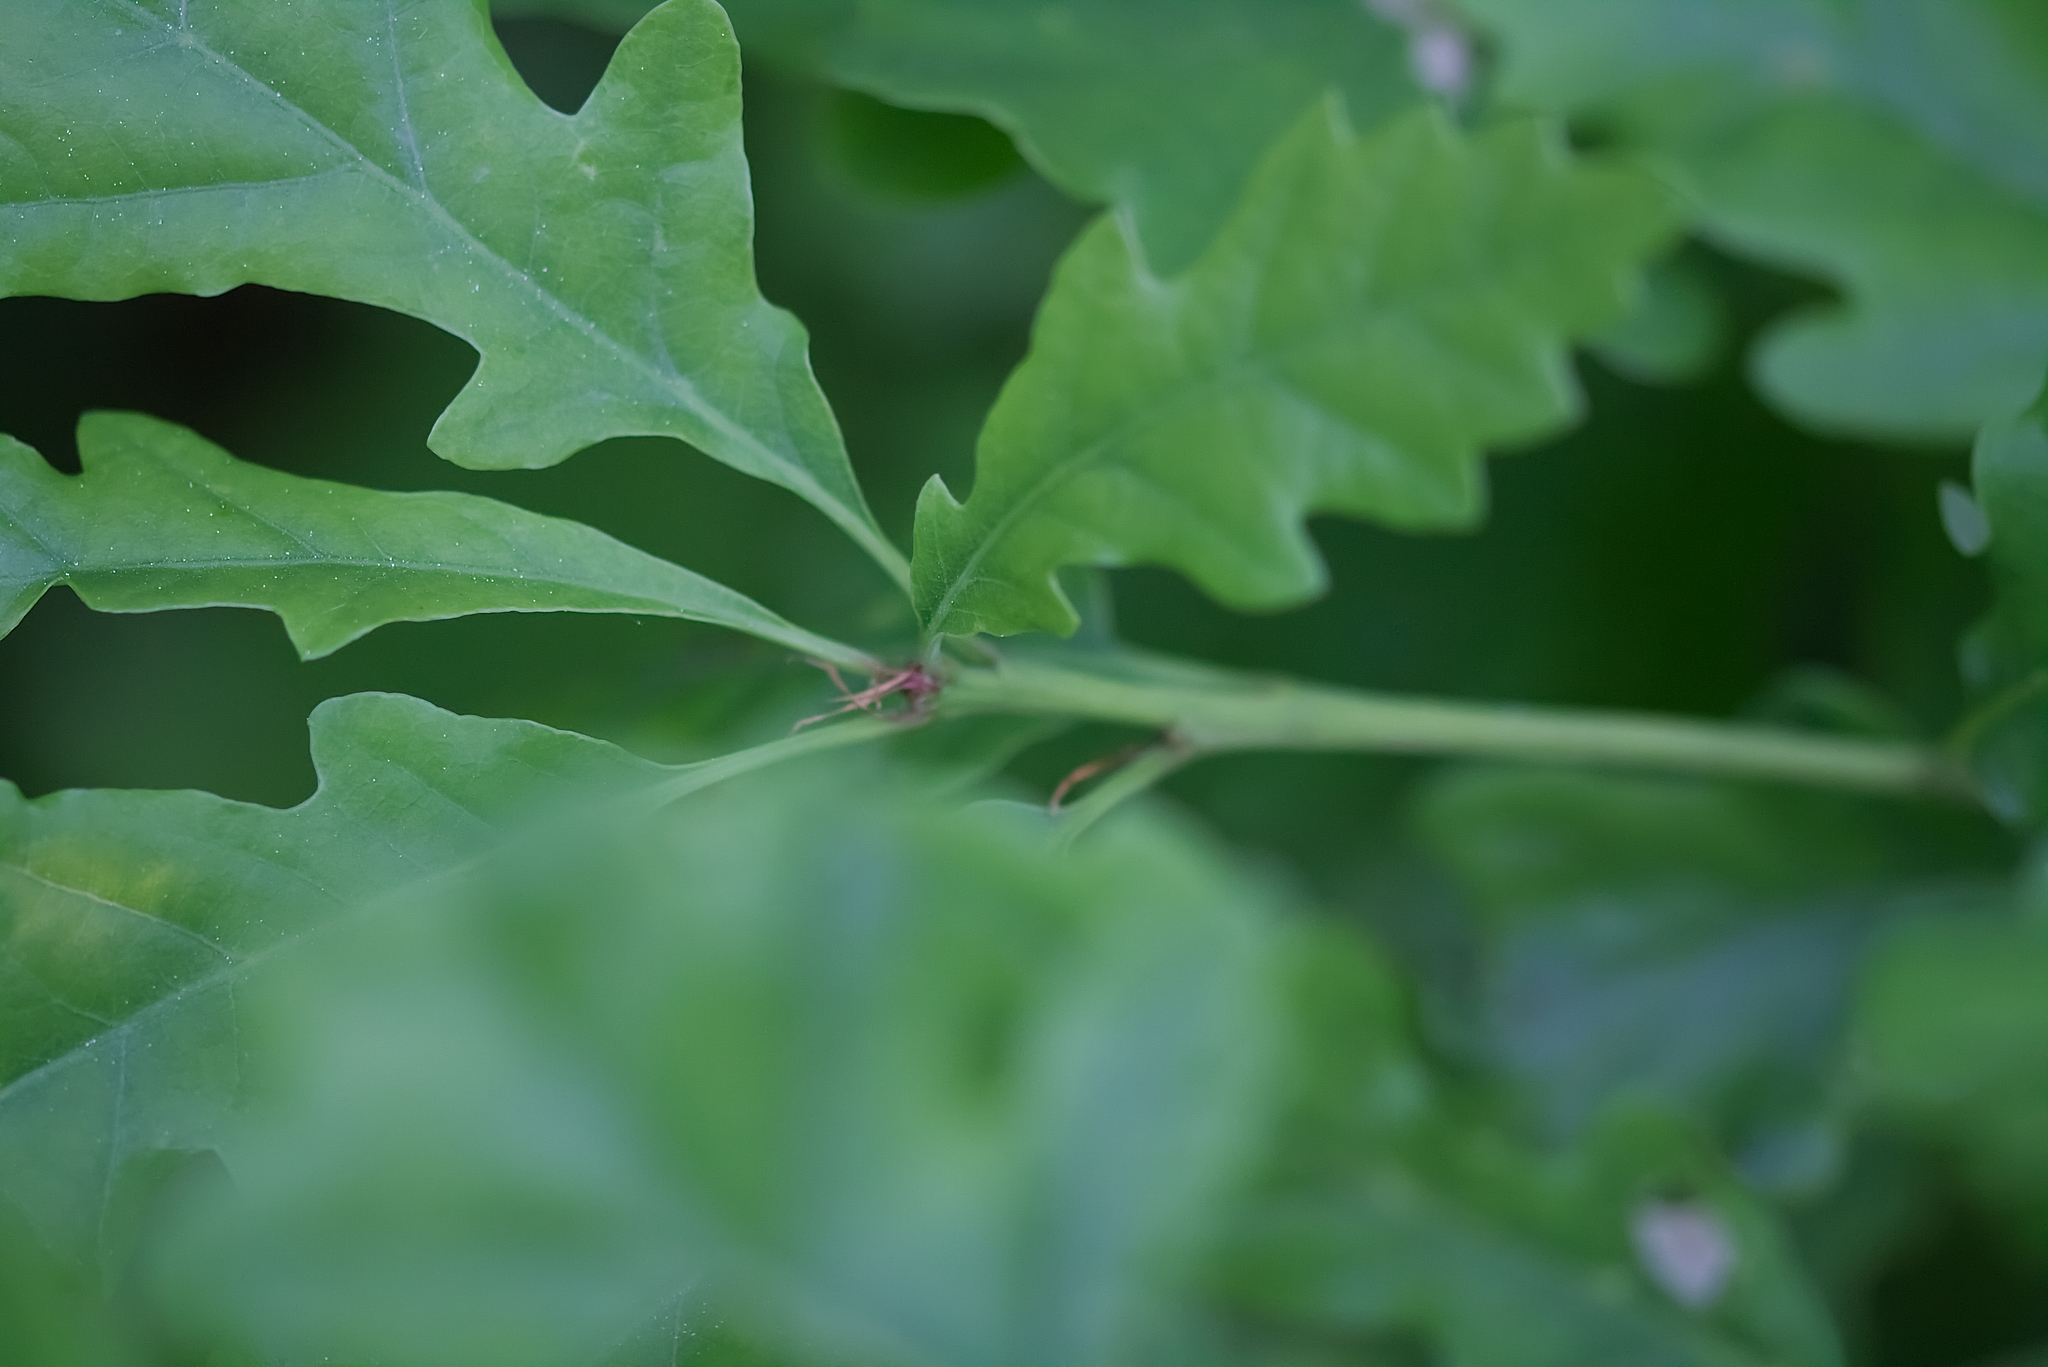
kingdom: Plantae
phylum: Tracheophyta
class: Magnoliopsida
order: Fagales
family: Fagaceae
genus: Quercus
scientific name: Quercus petraea
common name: Sessile oak
